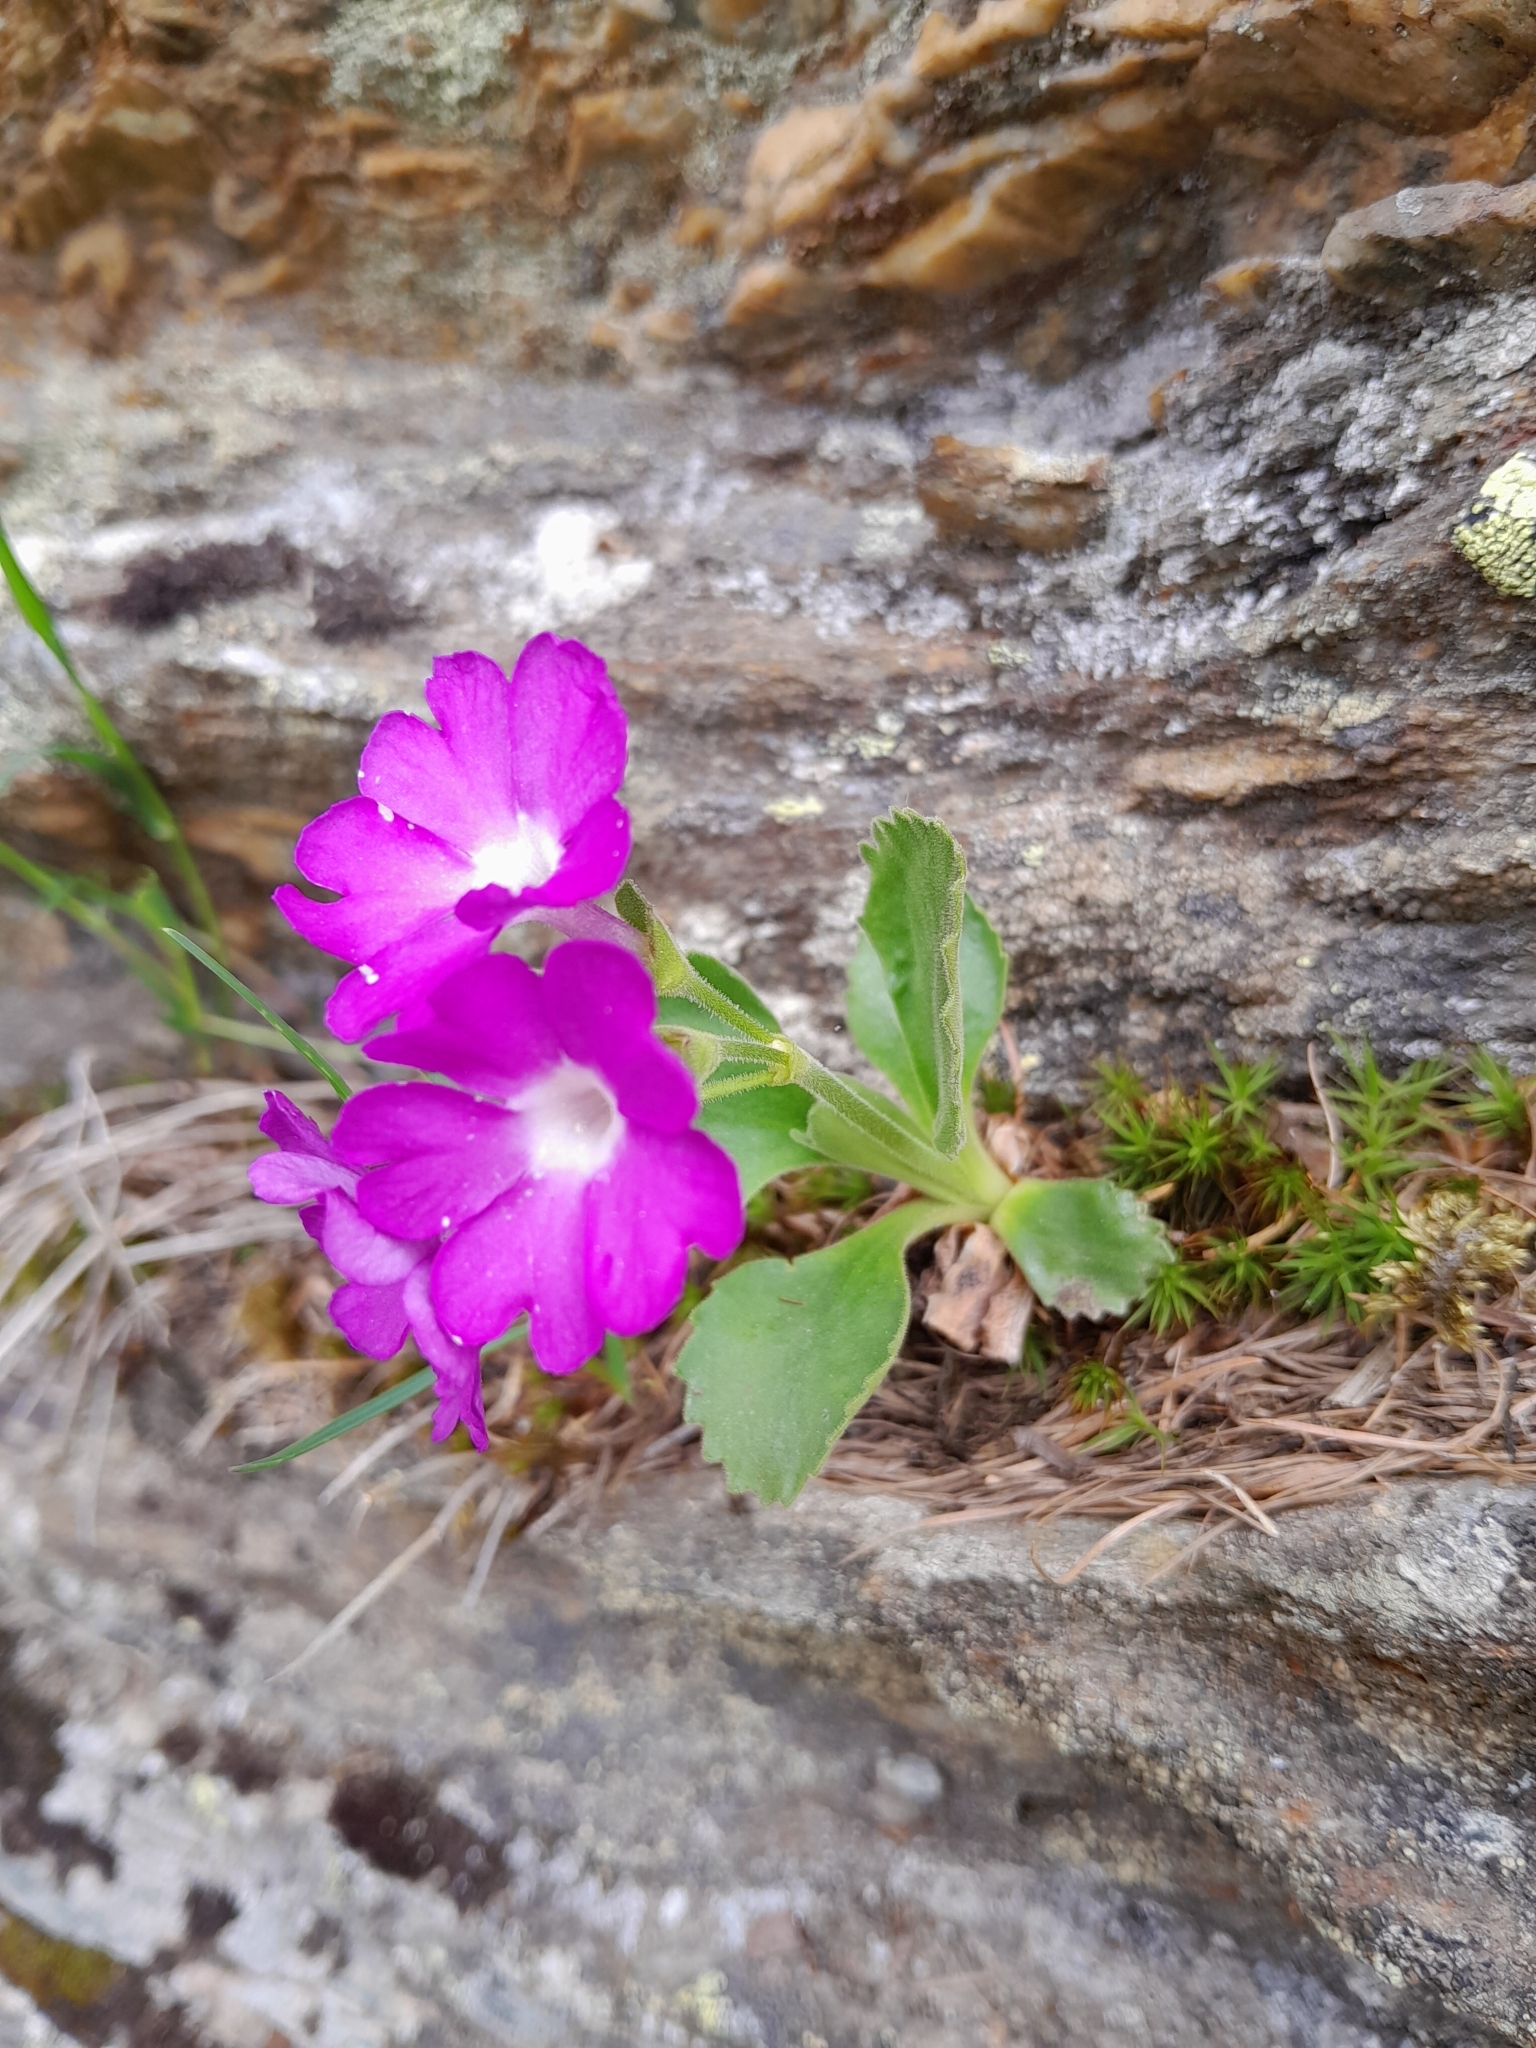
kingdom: Plantae
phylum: Tracheophyta
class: Magnoliopsida
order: Ericales
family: Primulaceae
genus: Primula
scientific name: Primula hirsuta
